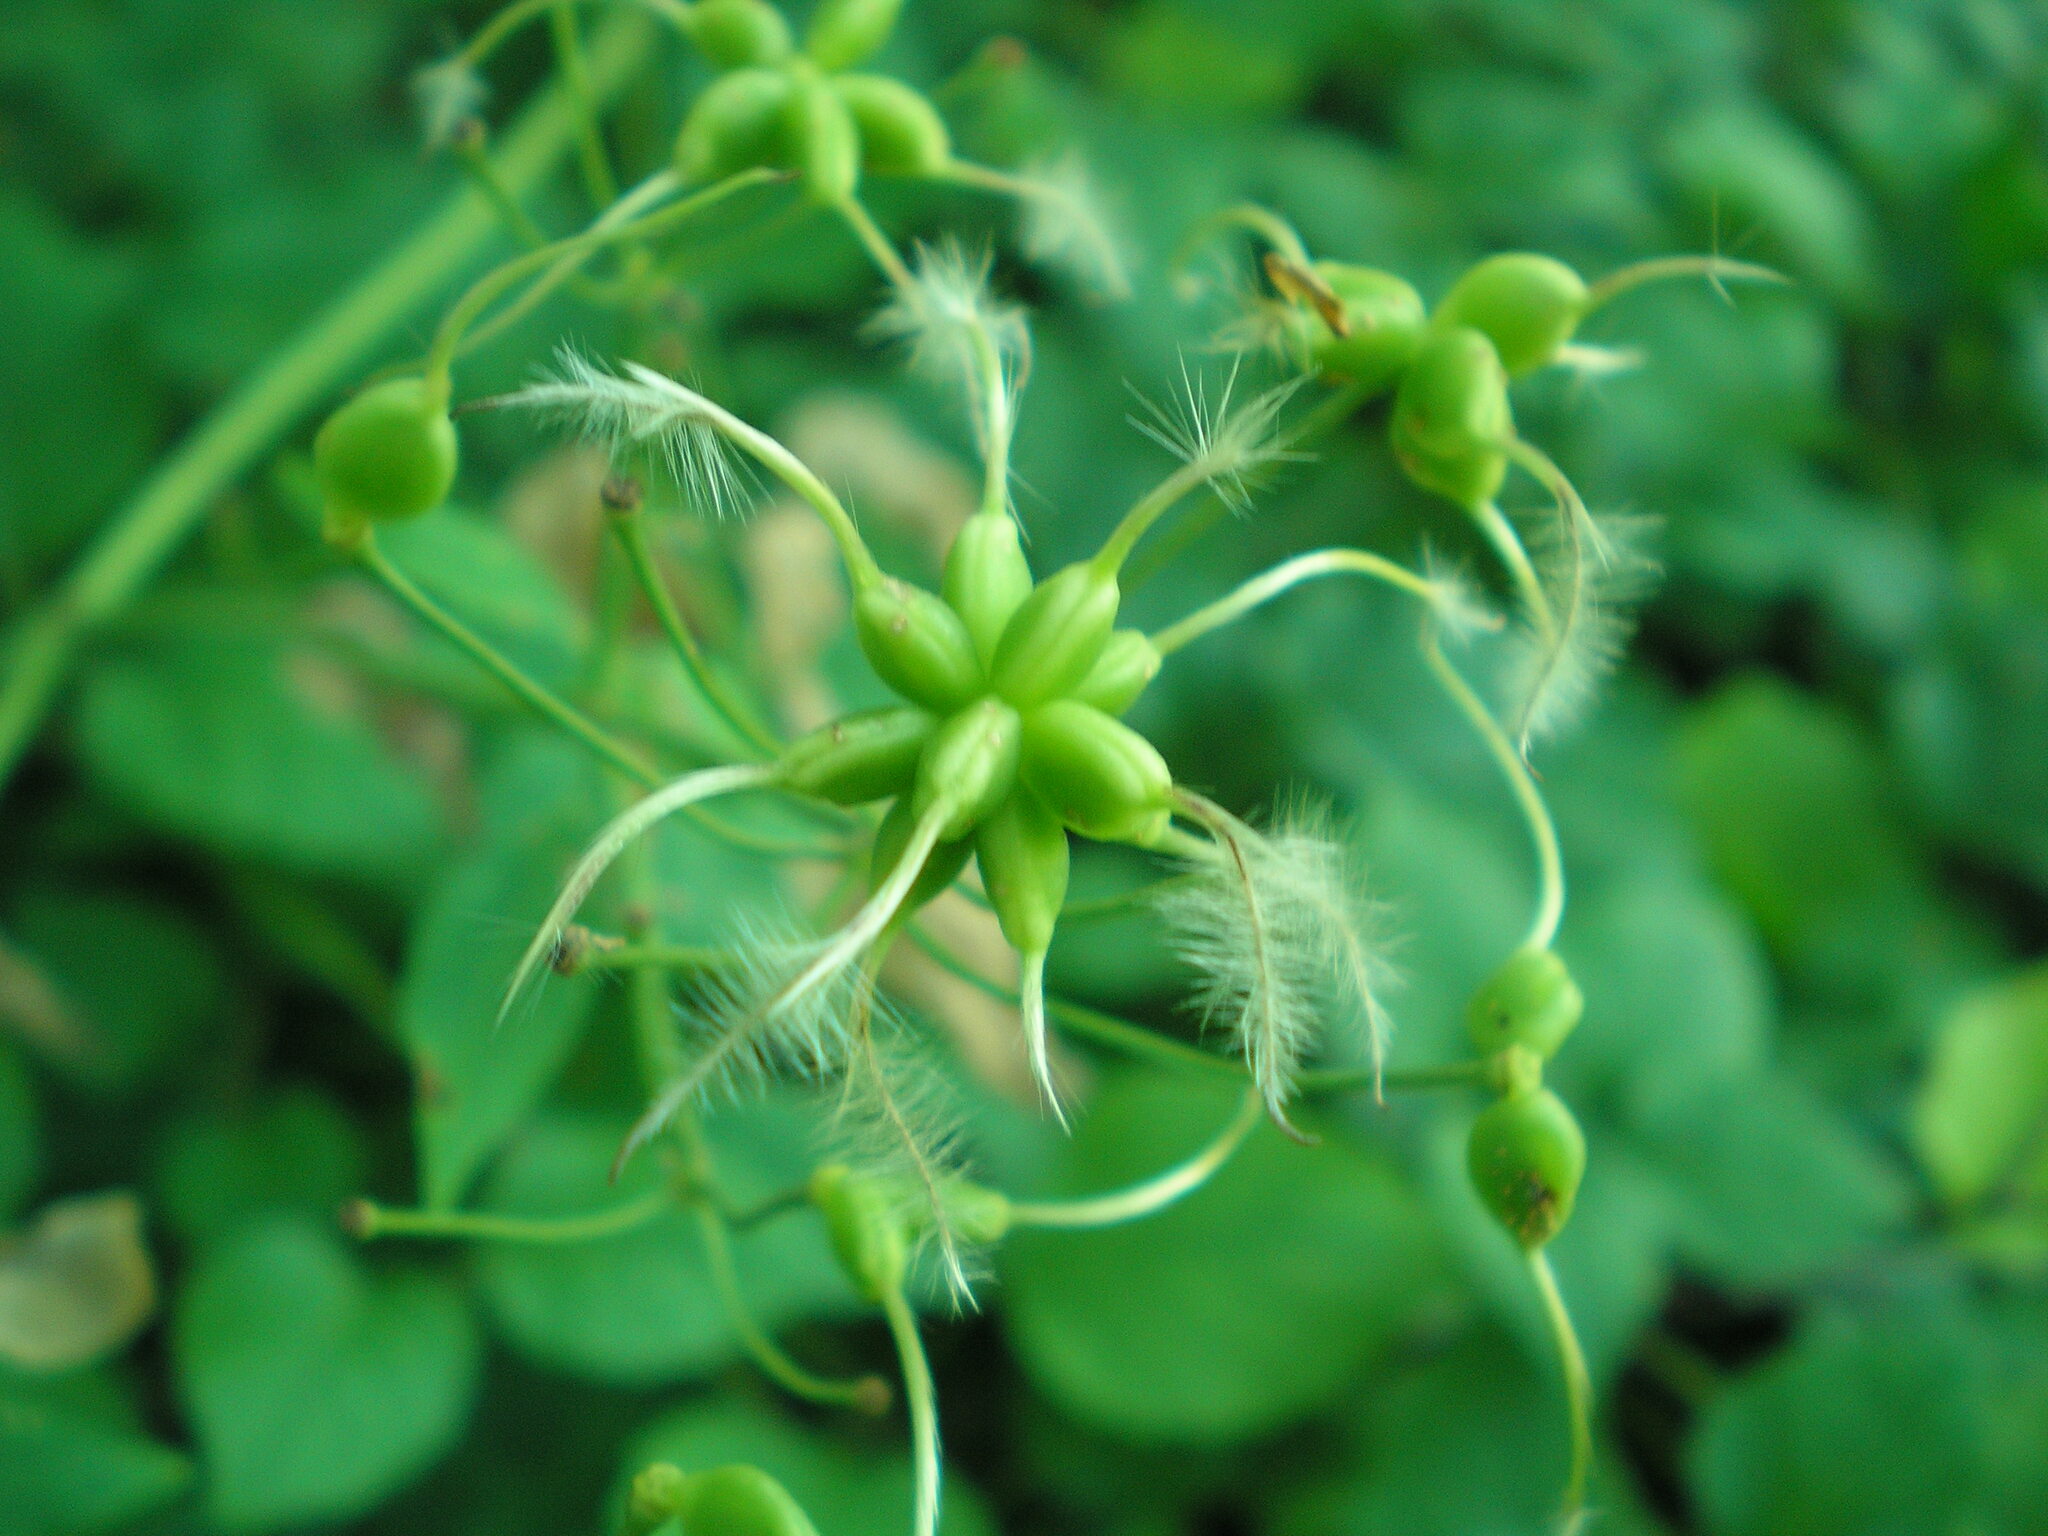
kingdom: Plantae
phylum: Tracheophyta
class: Magnoliopsida
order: Ranunculales
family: Ranunculaceae
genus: Clematis
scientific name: Clematis recta
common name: Ground clematis
